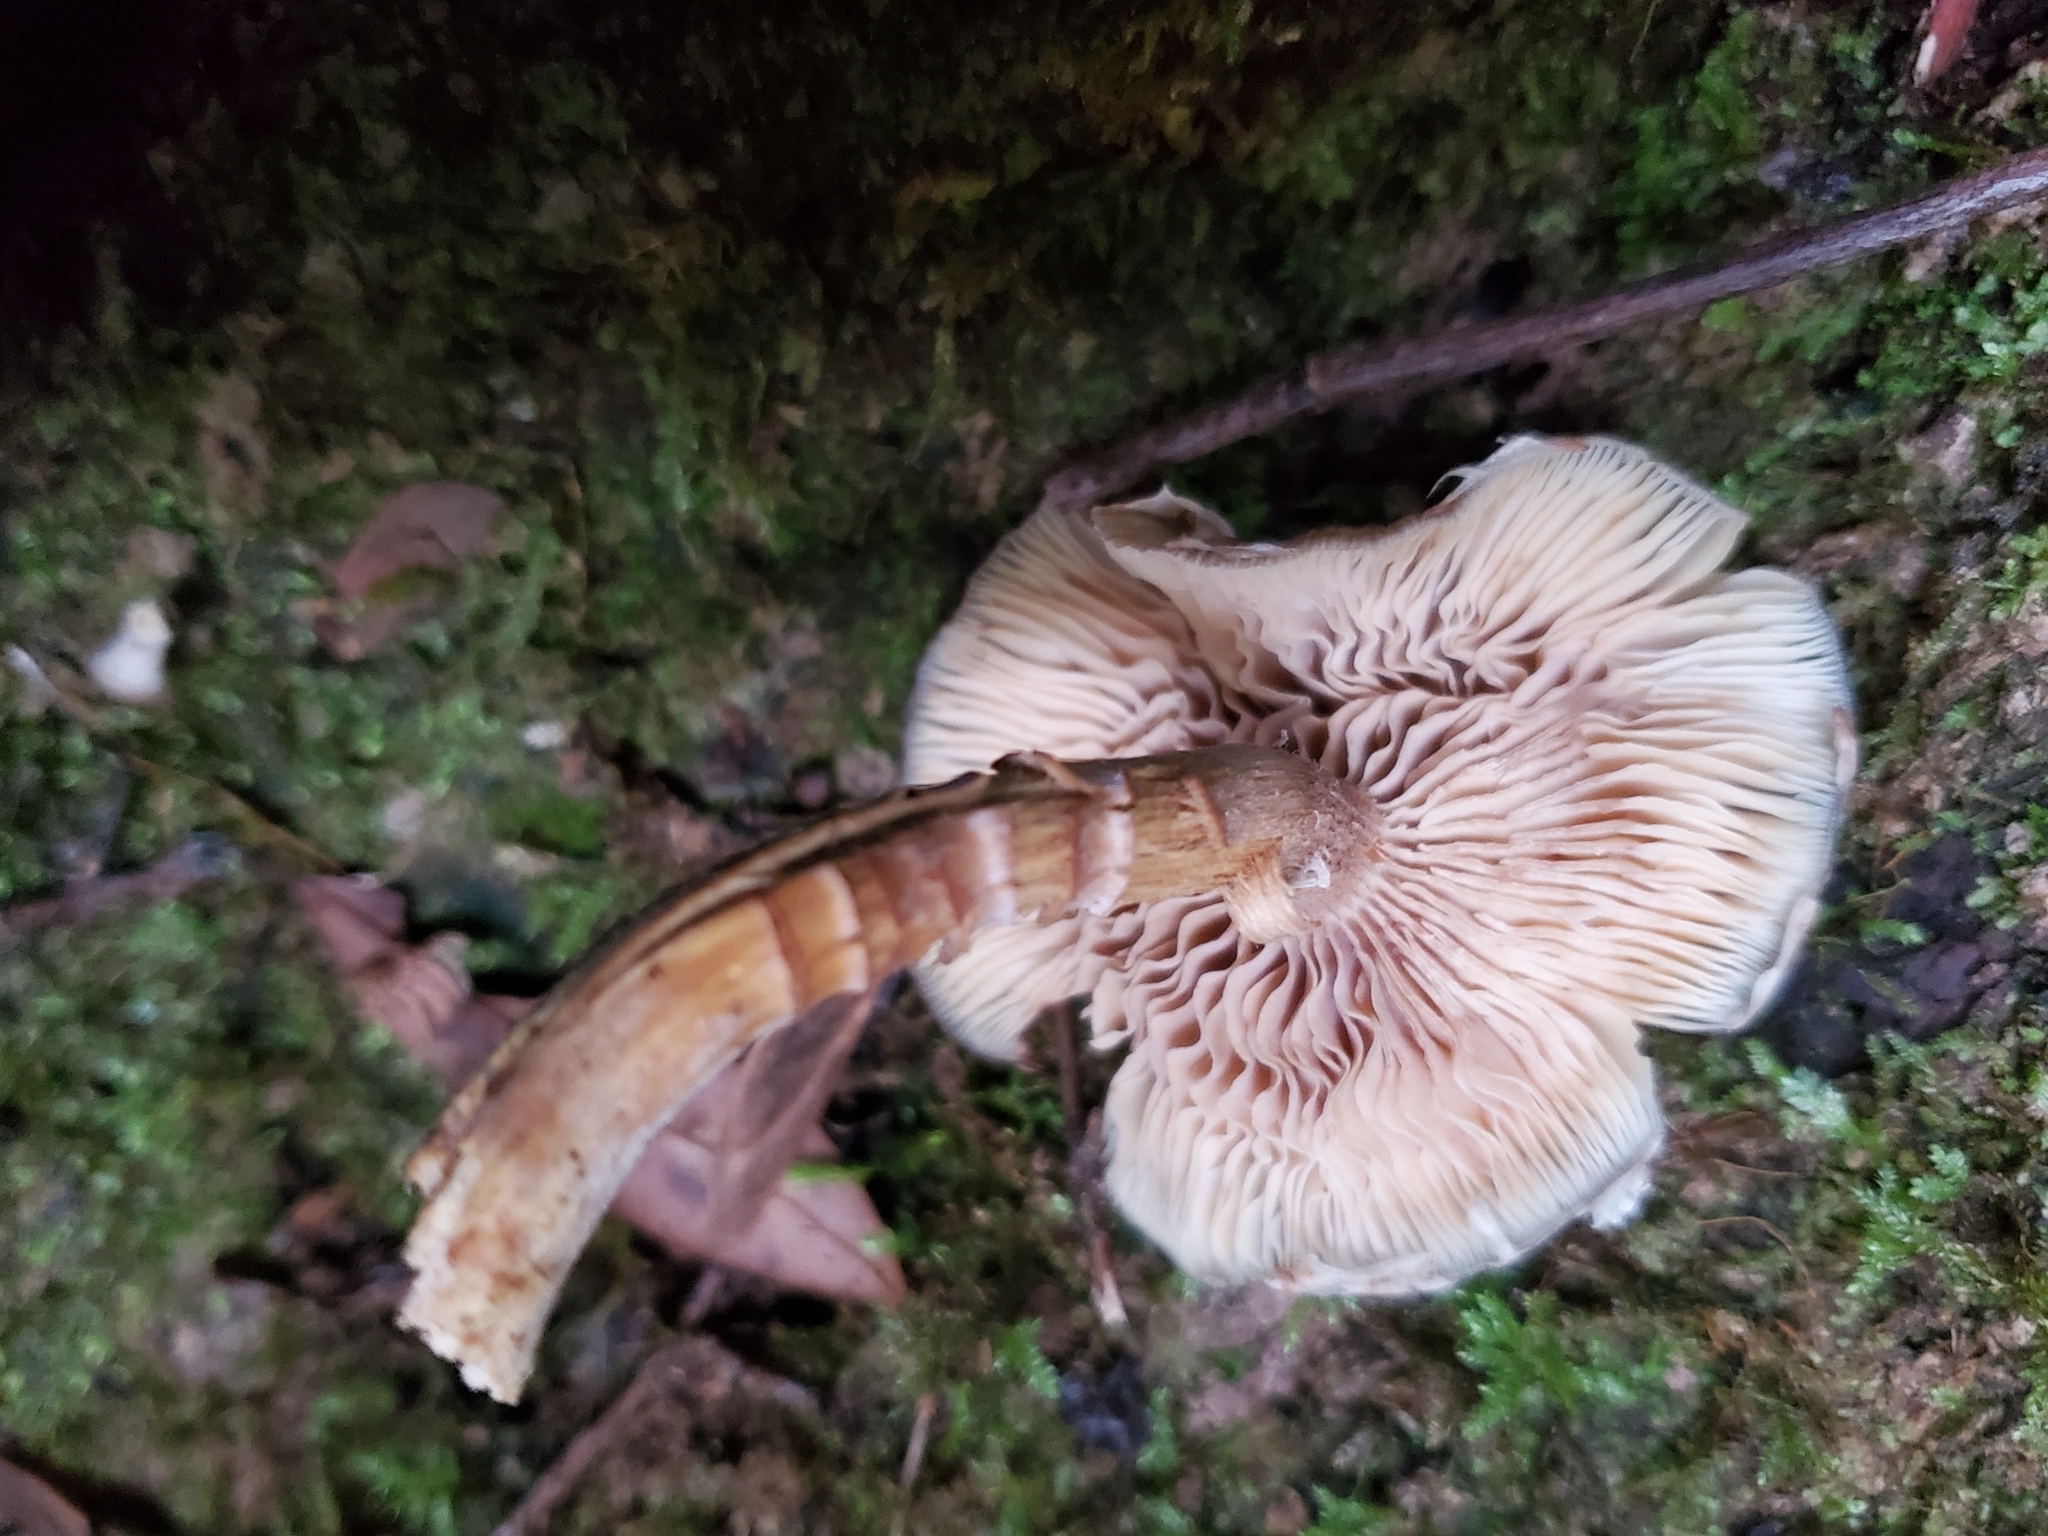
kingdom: Fungi
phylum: Basidiomycota
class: Agaricomycetes
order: Agaricales
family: Physalacriaceae
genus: Armillaria
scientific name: Armillaria novae-zelandiae
